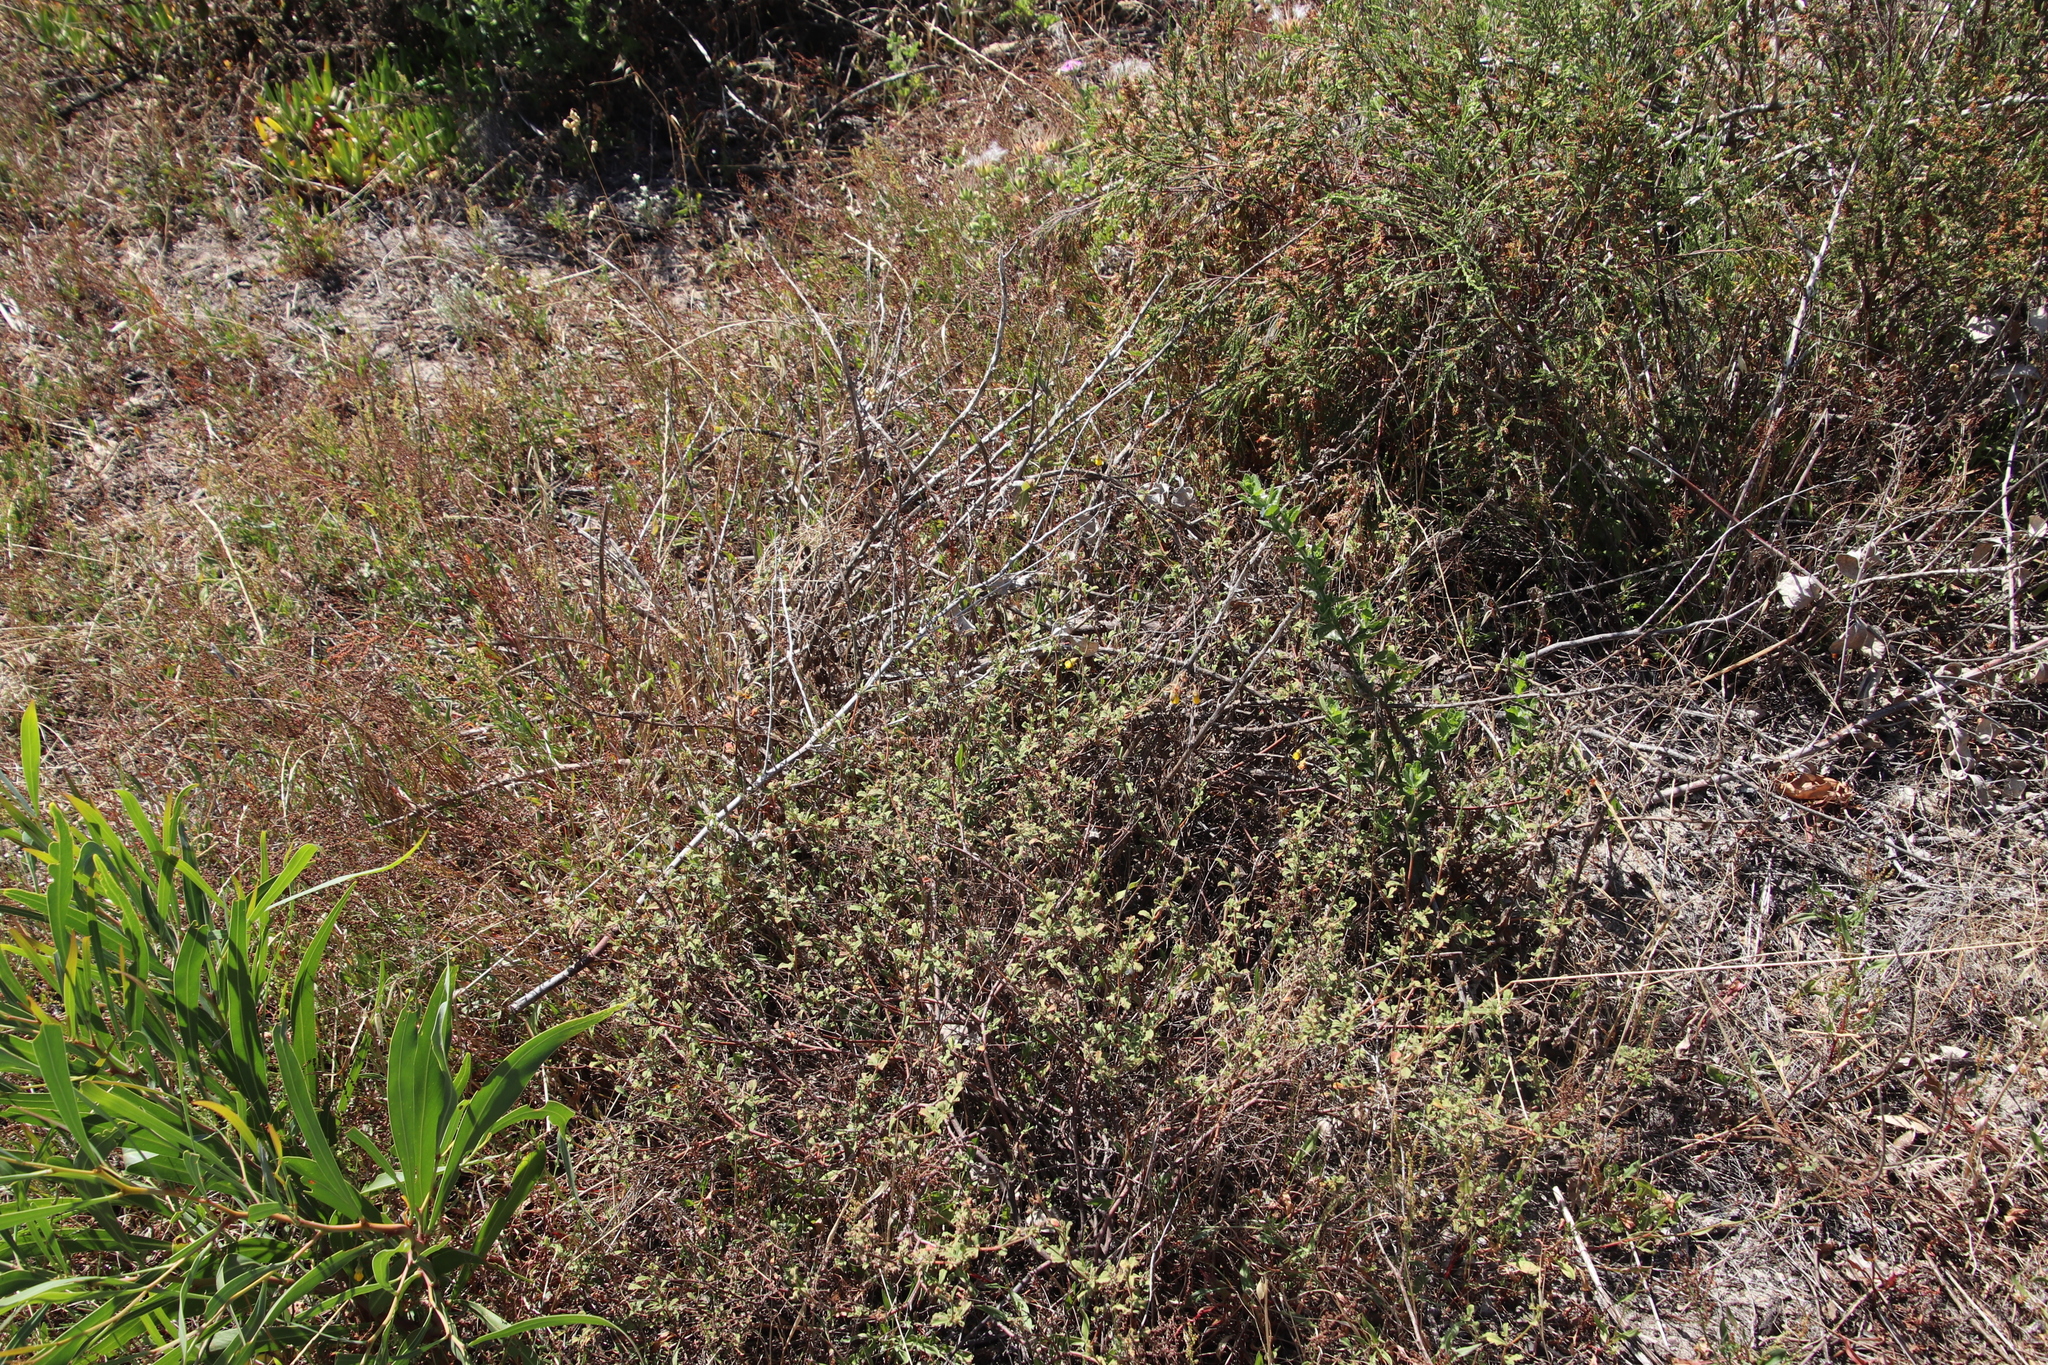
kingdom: Plantae
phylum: Tracheophyta
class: Magnoliopsida
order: Malvales
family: Malvaceae
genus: Hermannia
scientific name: Hermannia multiflora
